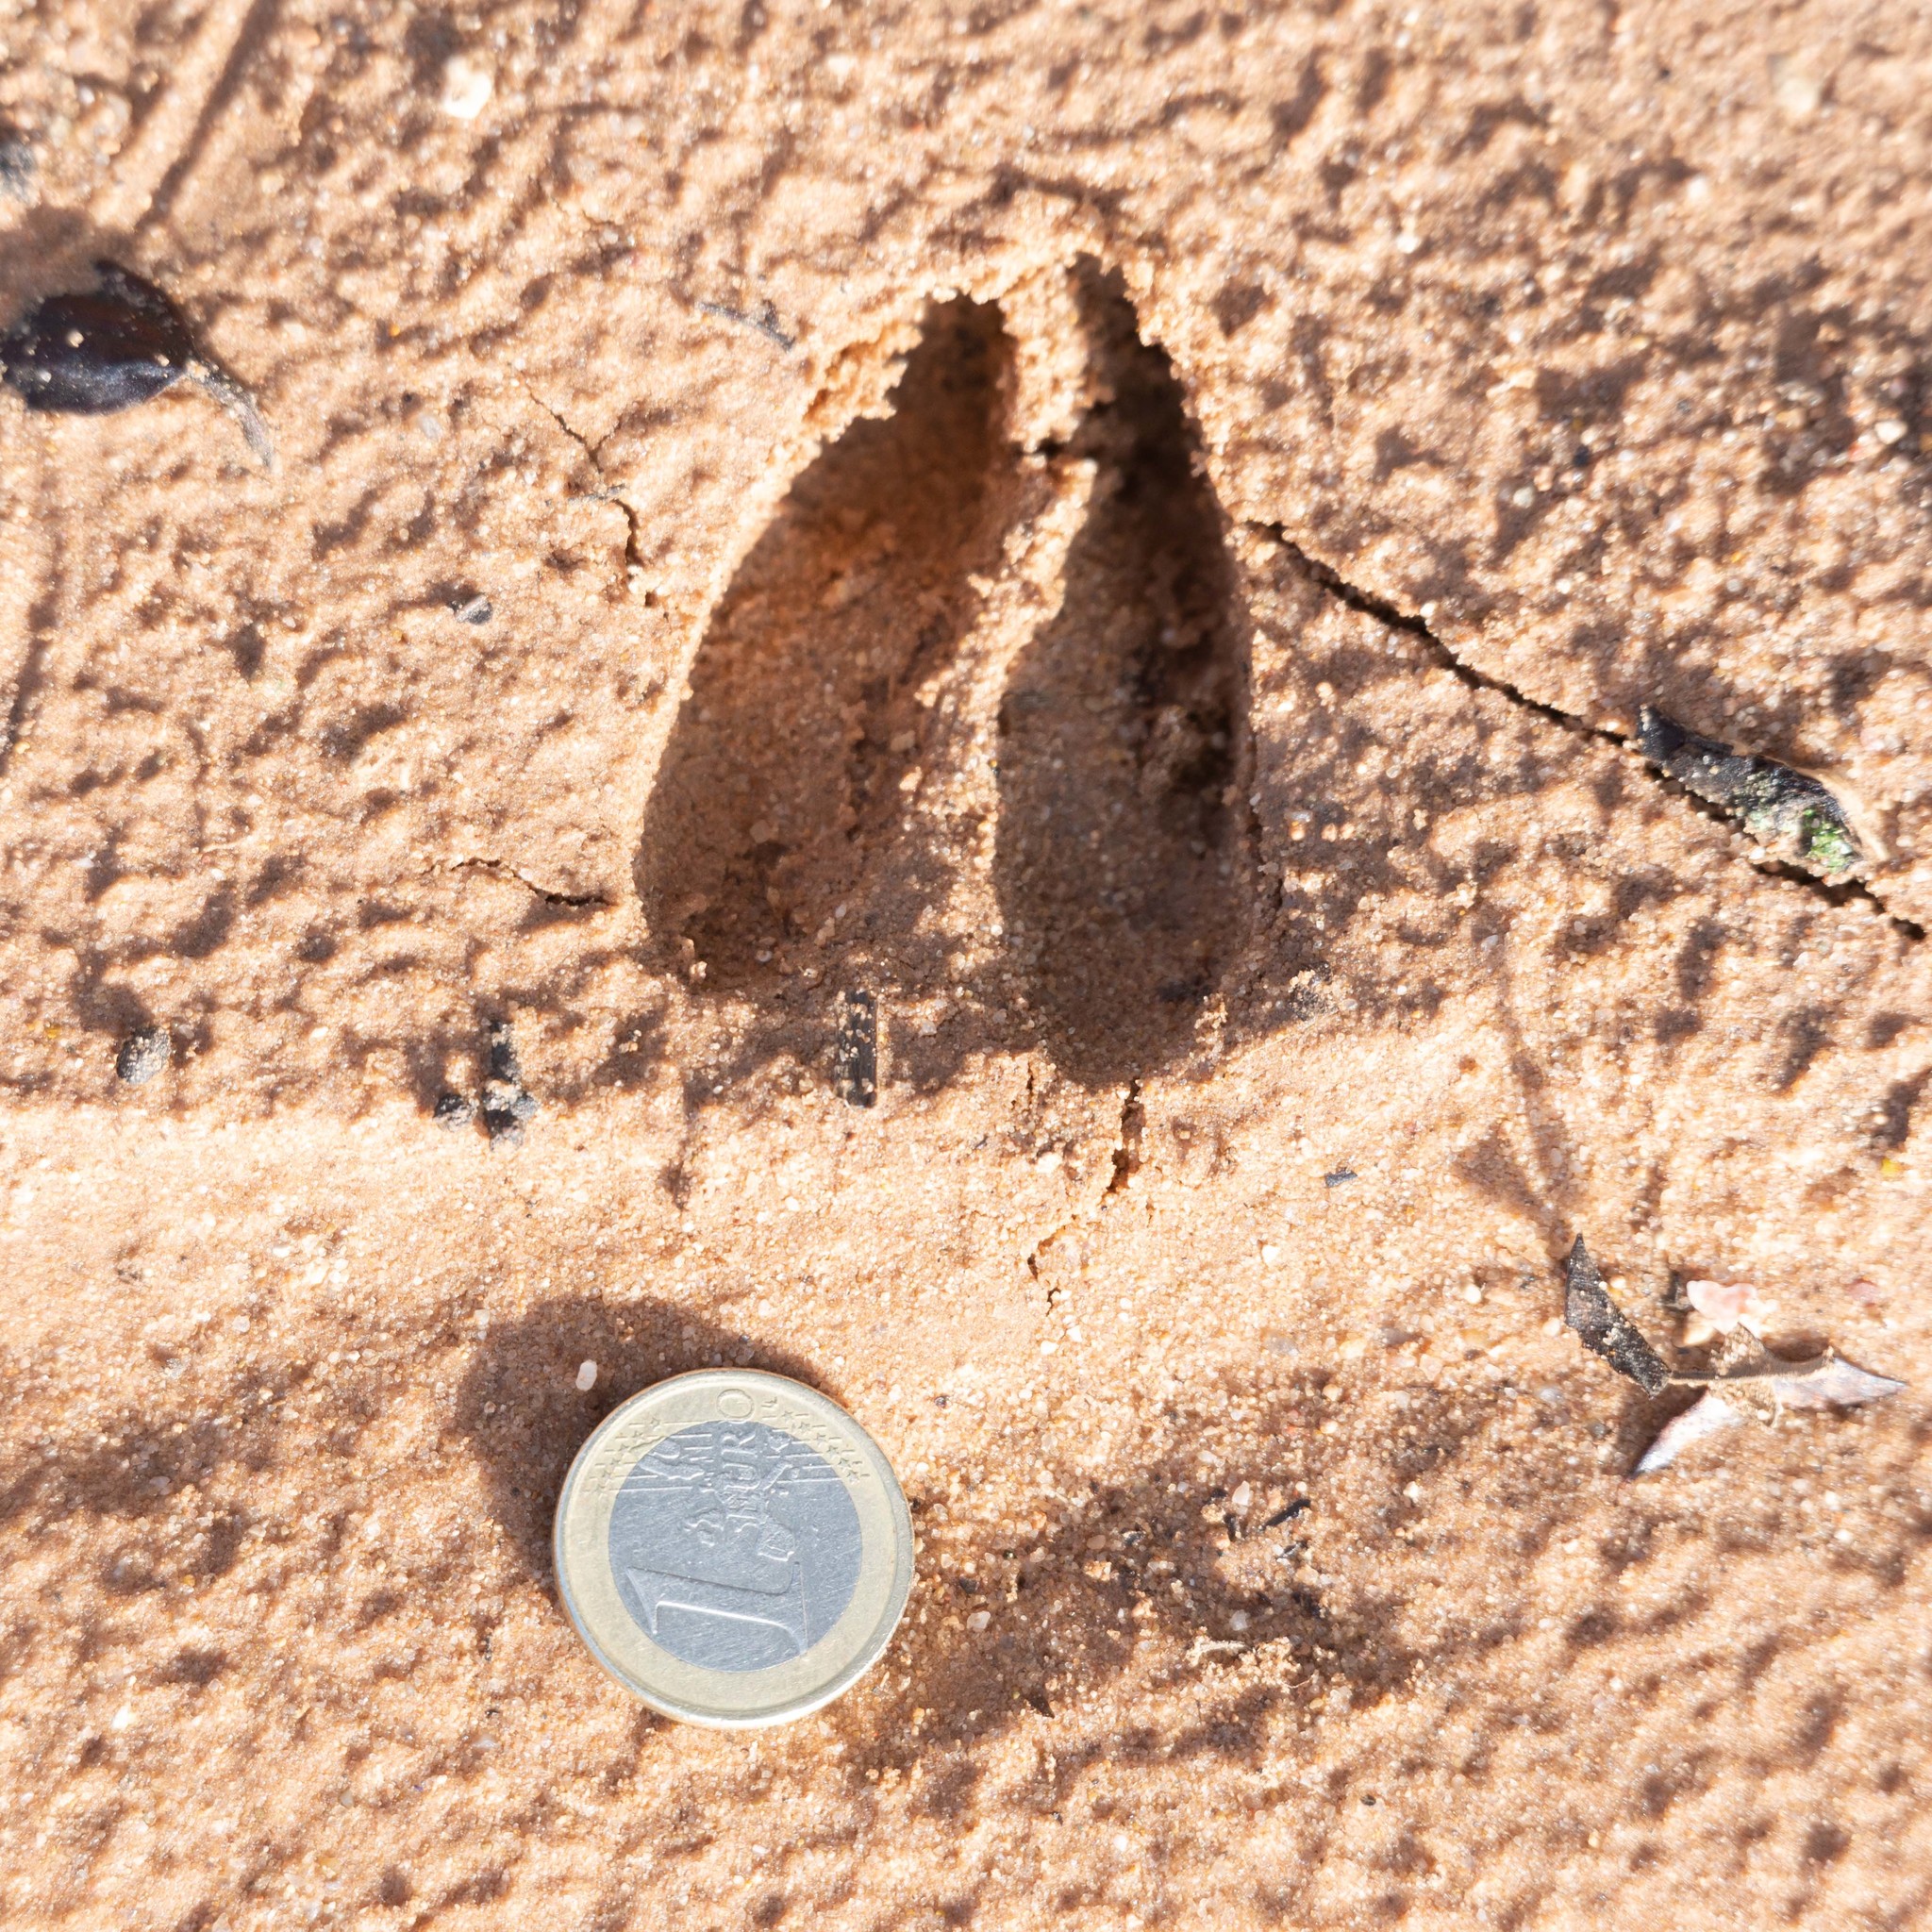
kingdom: Animalia
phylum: Chordata
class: Mammalia
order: Artiodactyla
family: Cervidae
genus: Capreolus
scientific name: Capreolus capreolus
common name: Western roe deer
